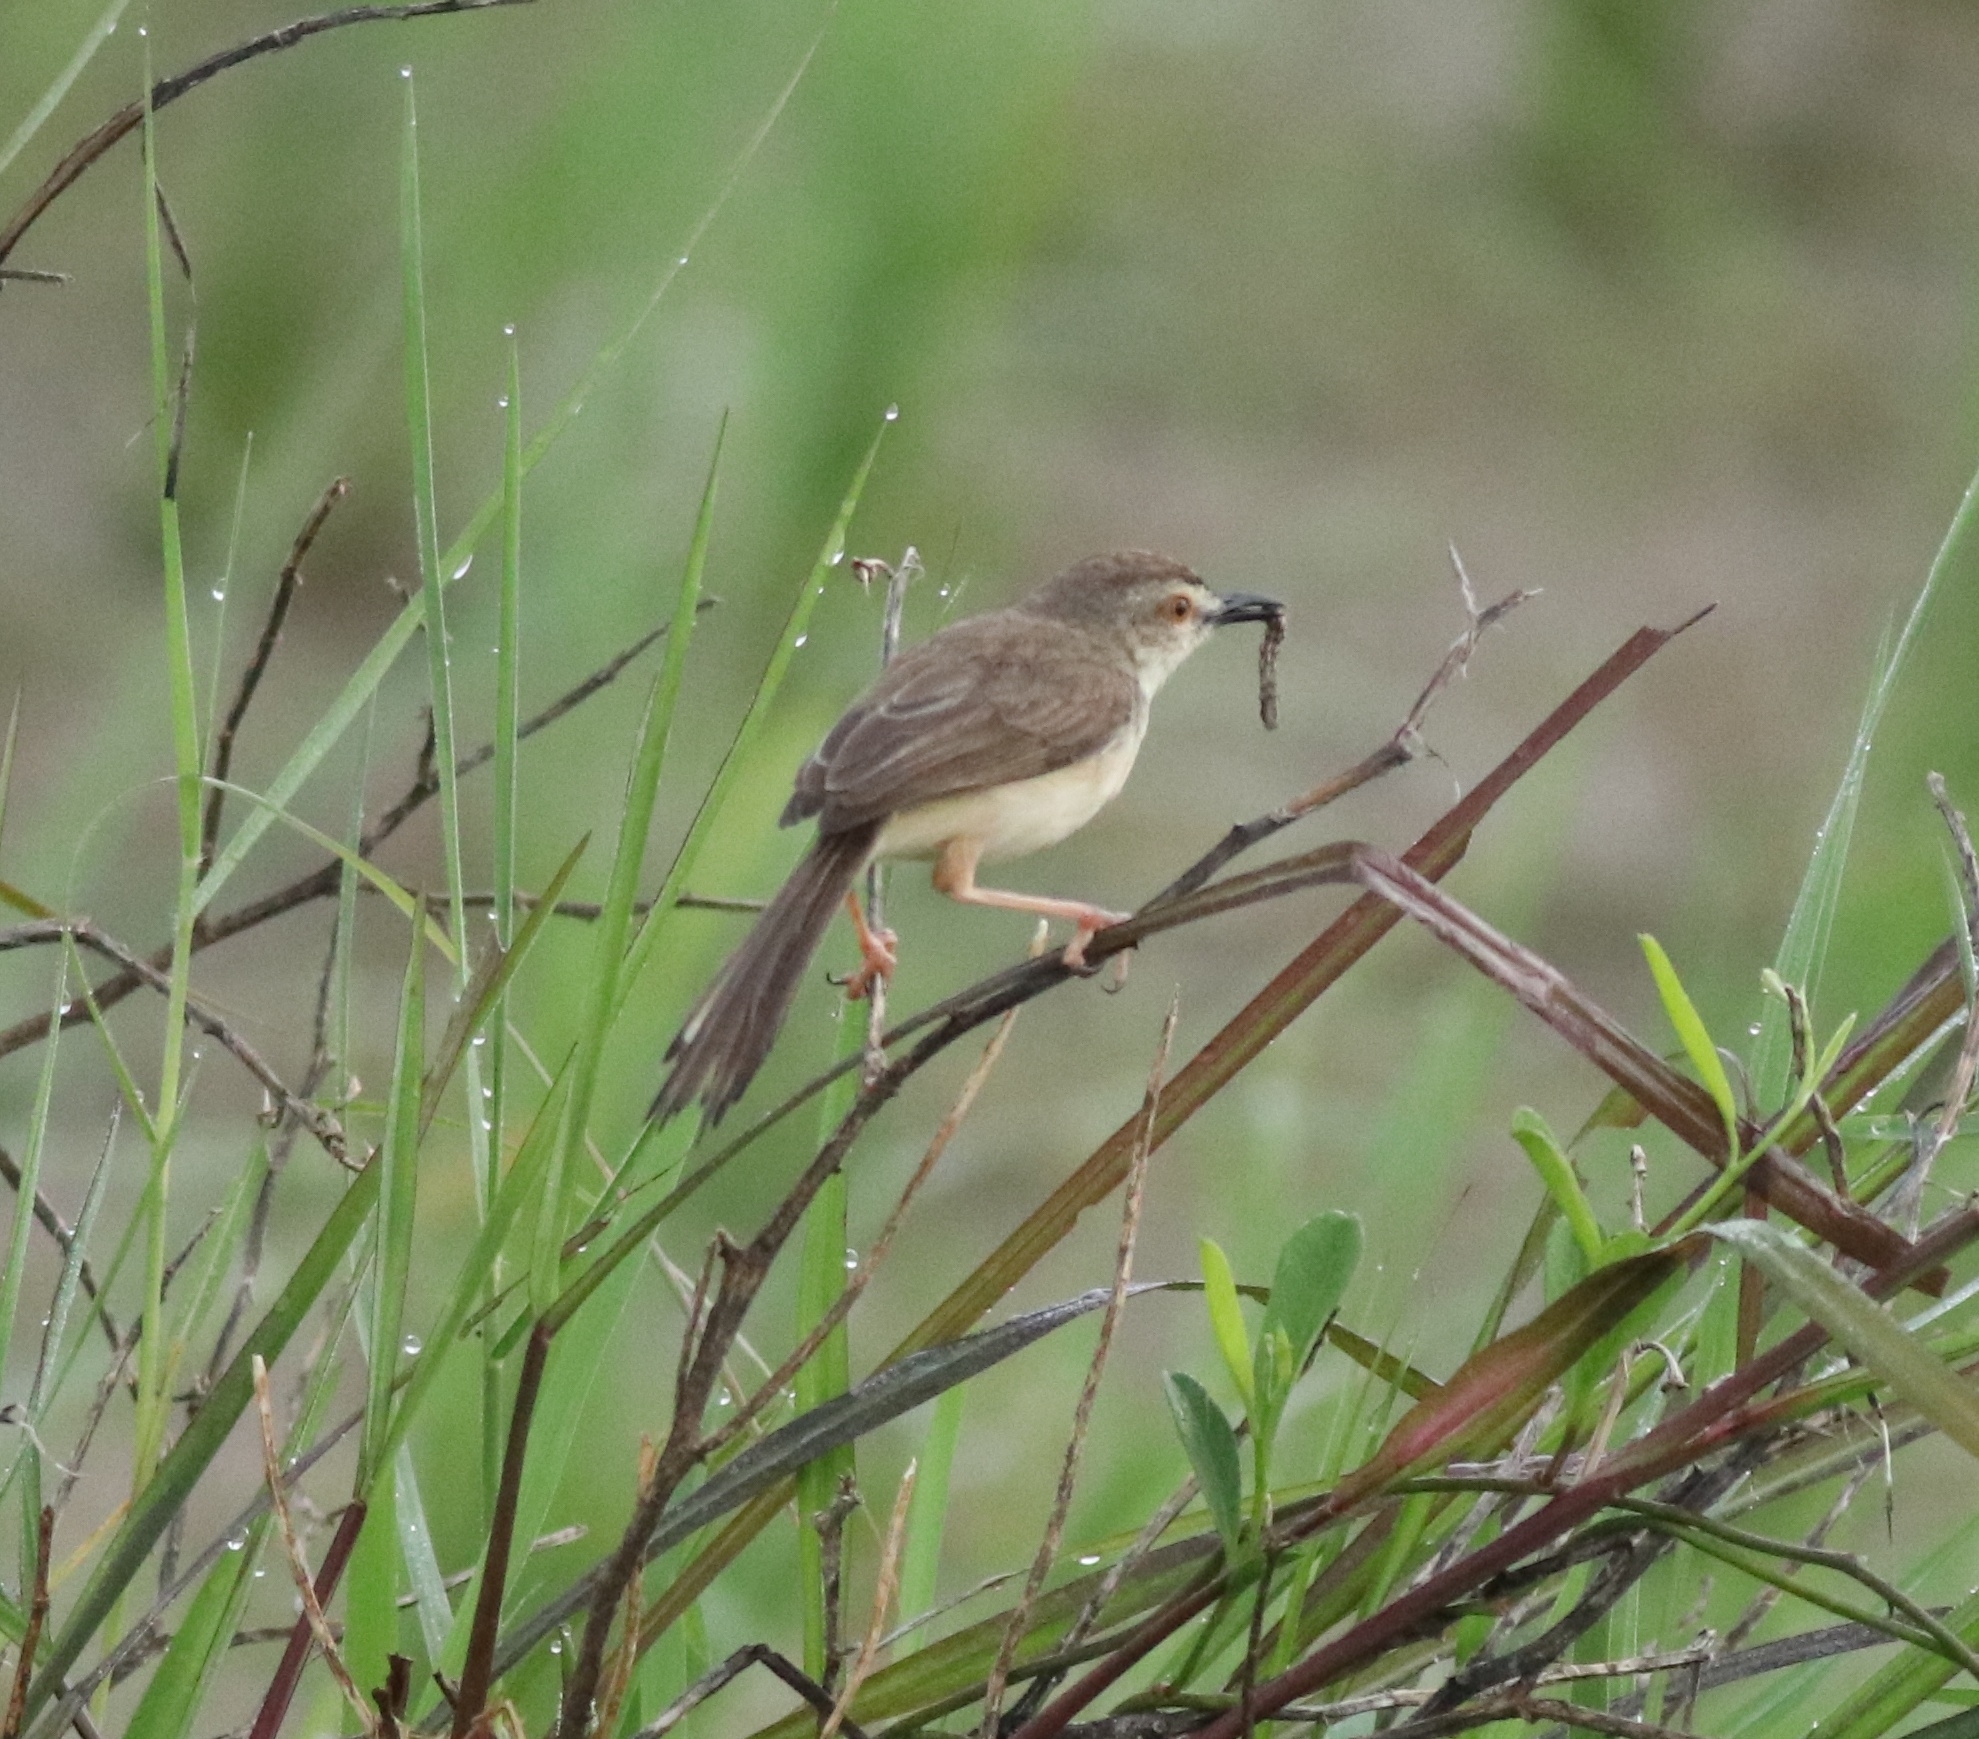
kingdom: Animalia
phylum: Chordata
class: Aves
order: Passeriformes
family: Cisticolidae
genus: Prinia
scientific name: Prinia inornata
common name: Plain prinia
